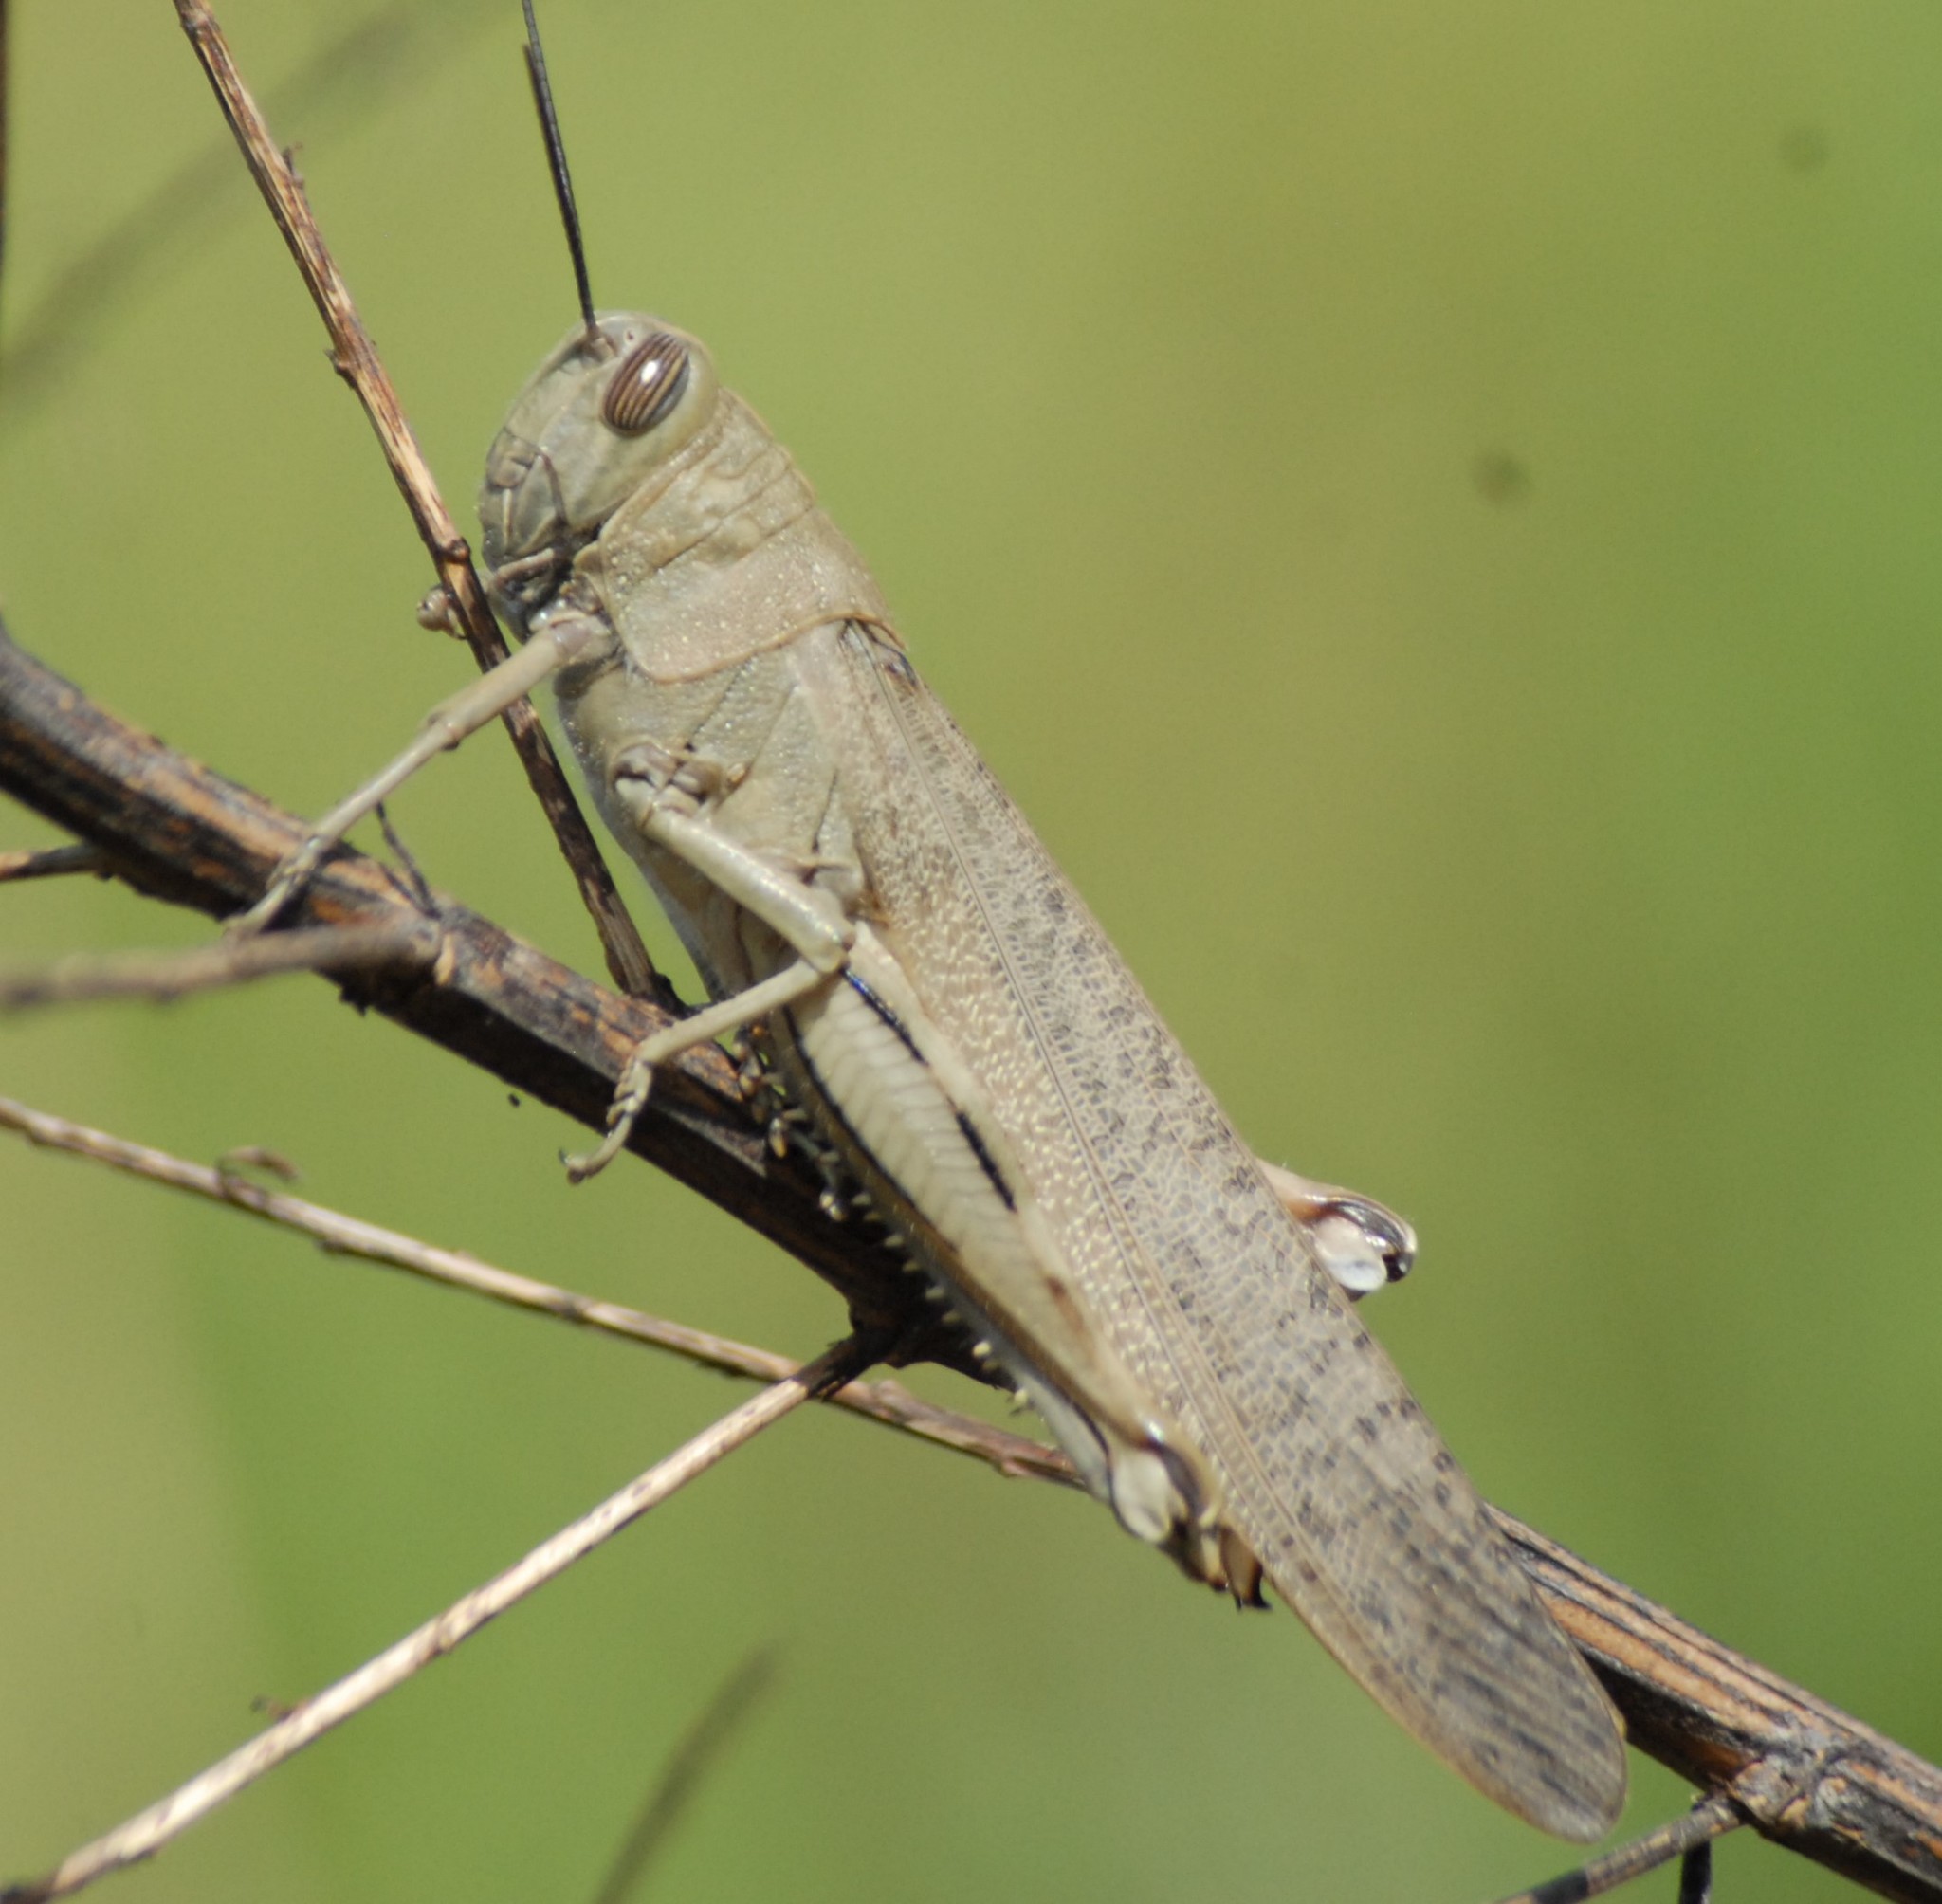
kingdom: Animalia
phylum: Arthropoda
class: Insecta
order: Orthoptera
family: Acrididae
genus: Anacridium
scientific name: Anacridium aegyptium
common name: Egyptian grasshopper
